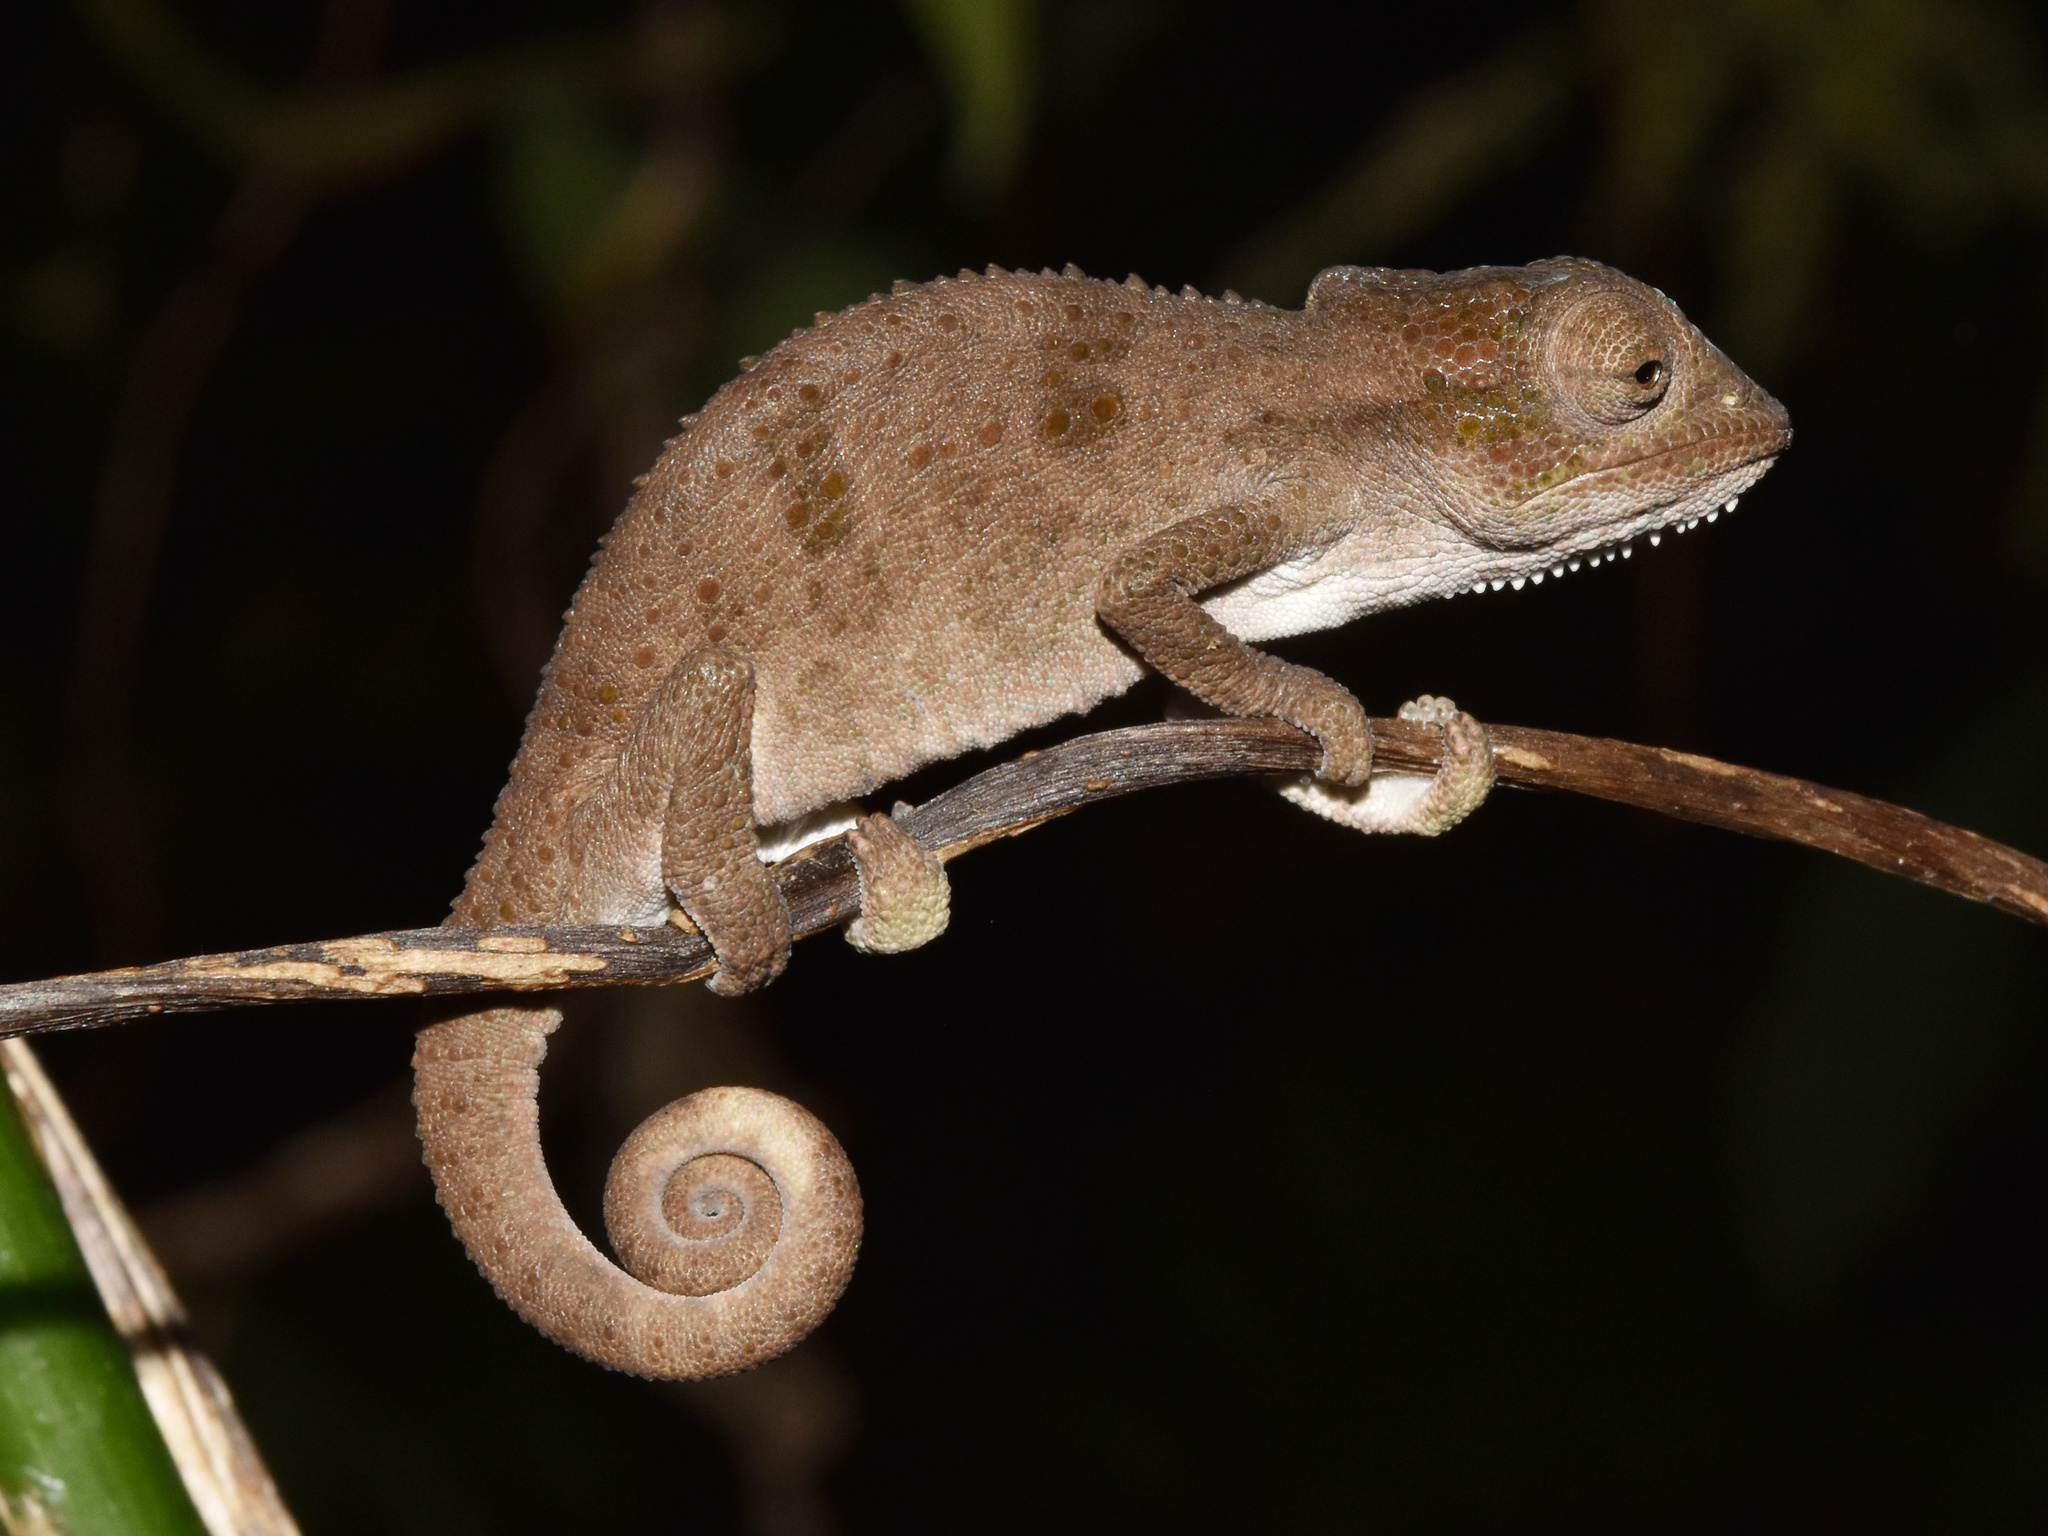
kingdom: Animalia
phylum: Chordata
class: Squamata
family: Chamaeleonidae
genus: Bradypodion
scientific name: Bradypodion melanocephalum
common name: Black-headed dwarf chameleon
